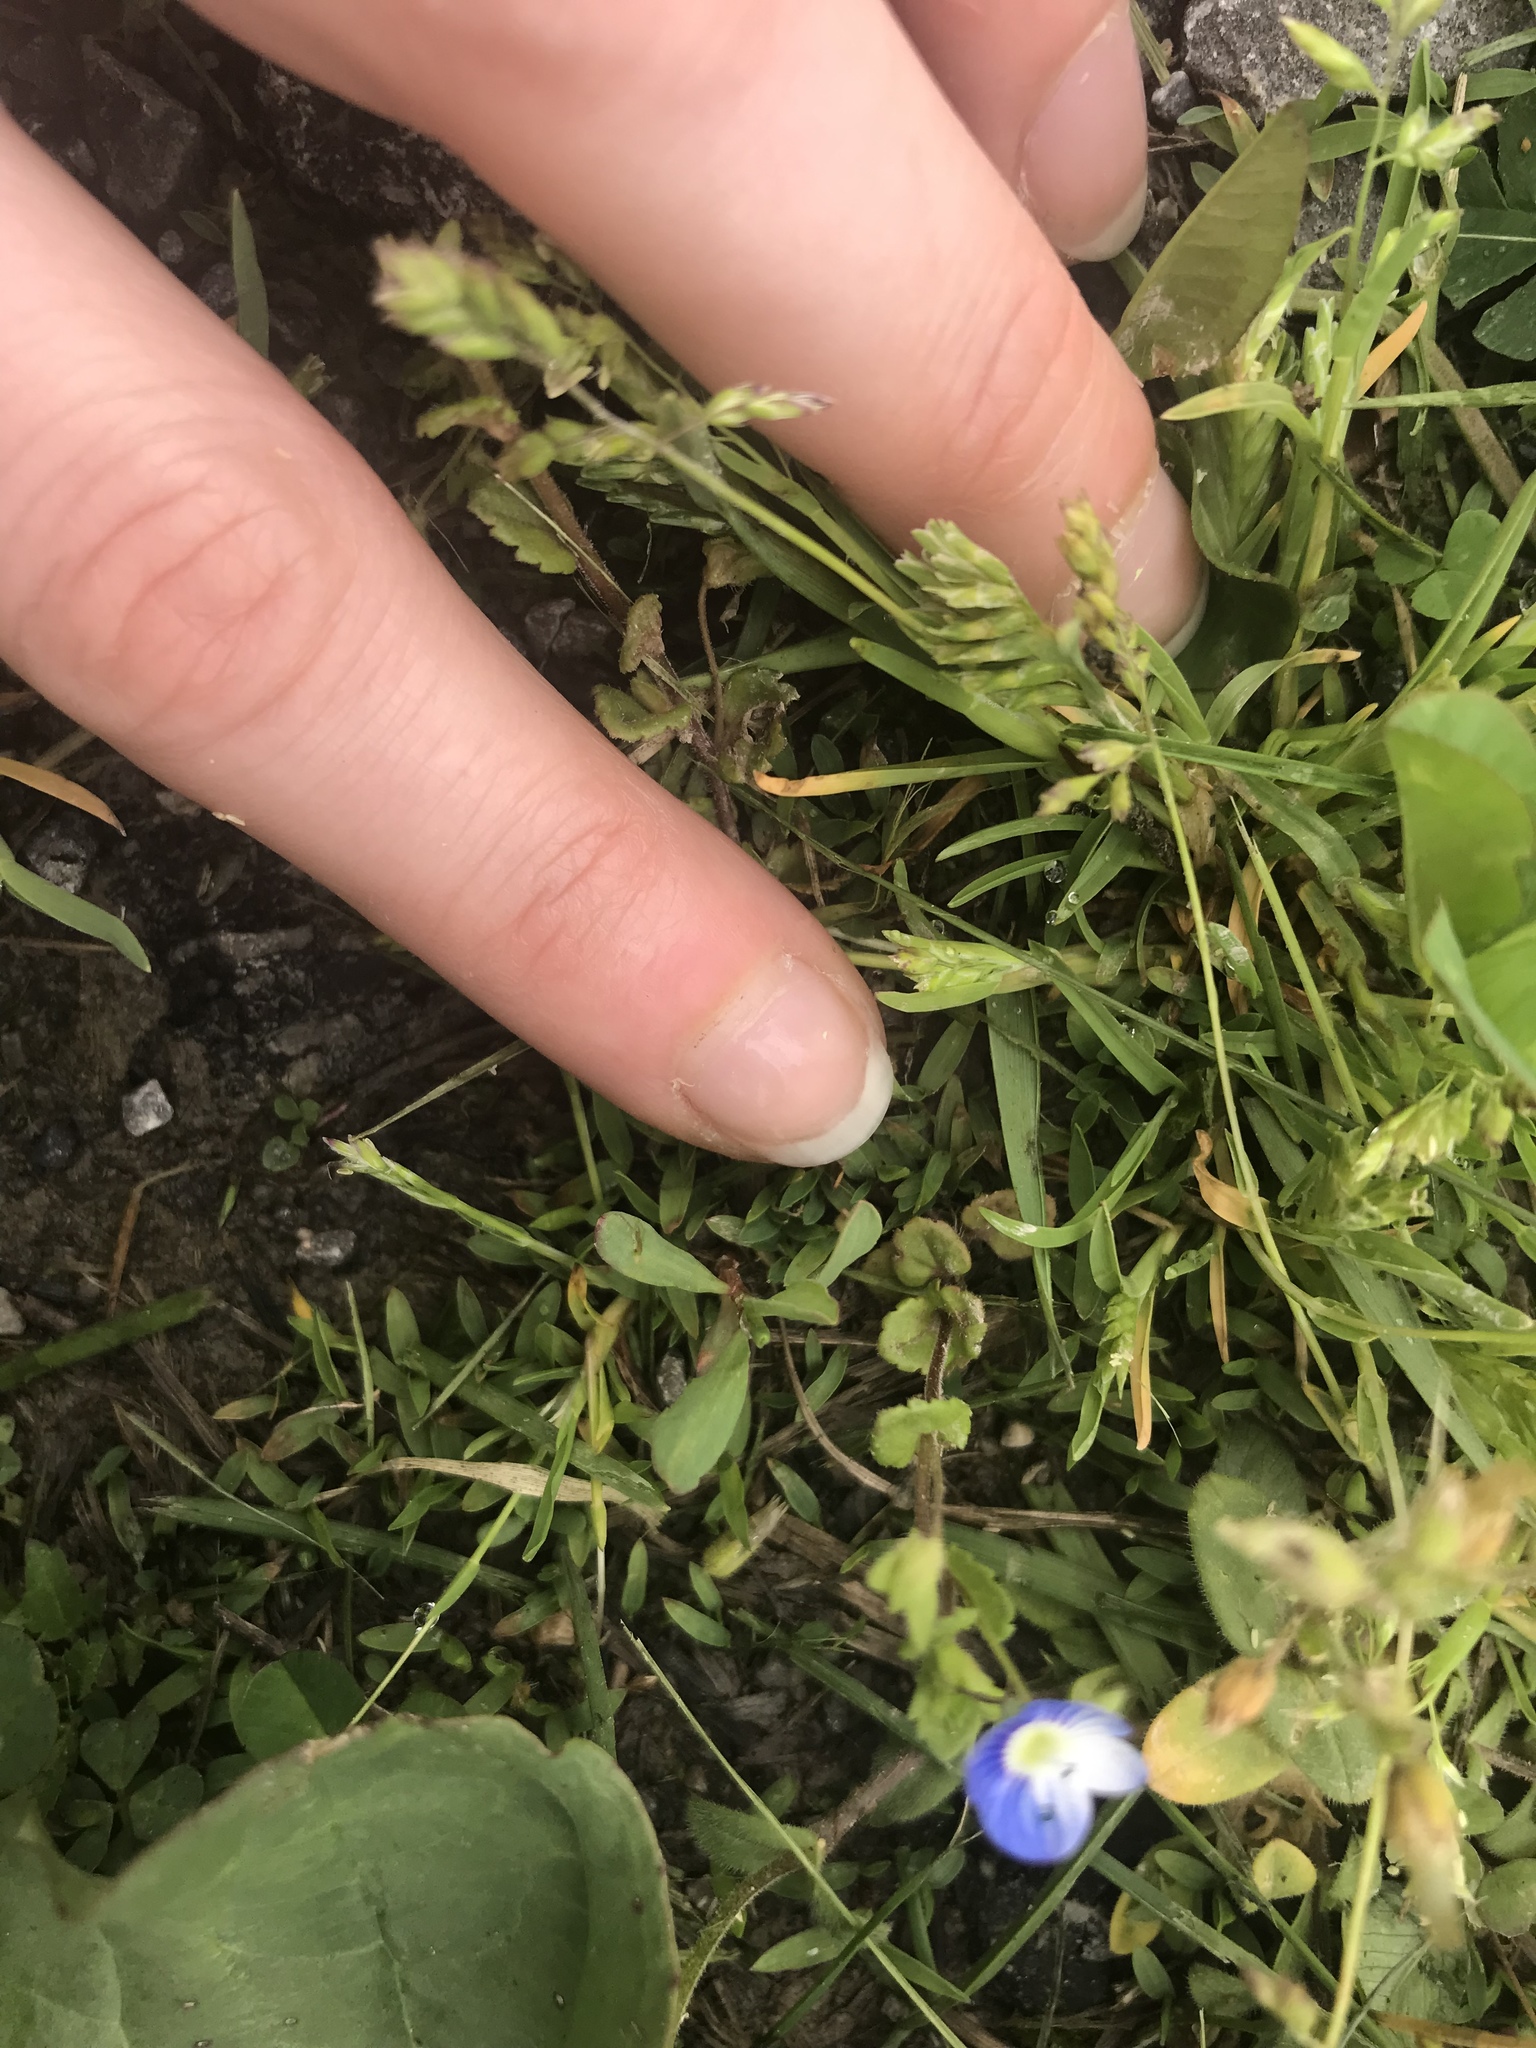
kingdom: Plantae
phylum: Tracheophyta
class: Magnoliopsida
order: Lamiales
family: Plantaginaceae
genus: Veronica
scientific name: Veronica persica
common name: Common field-speedwell
